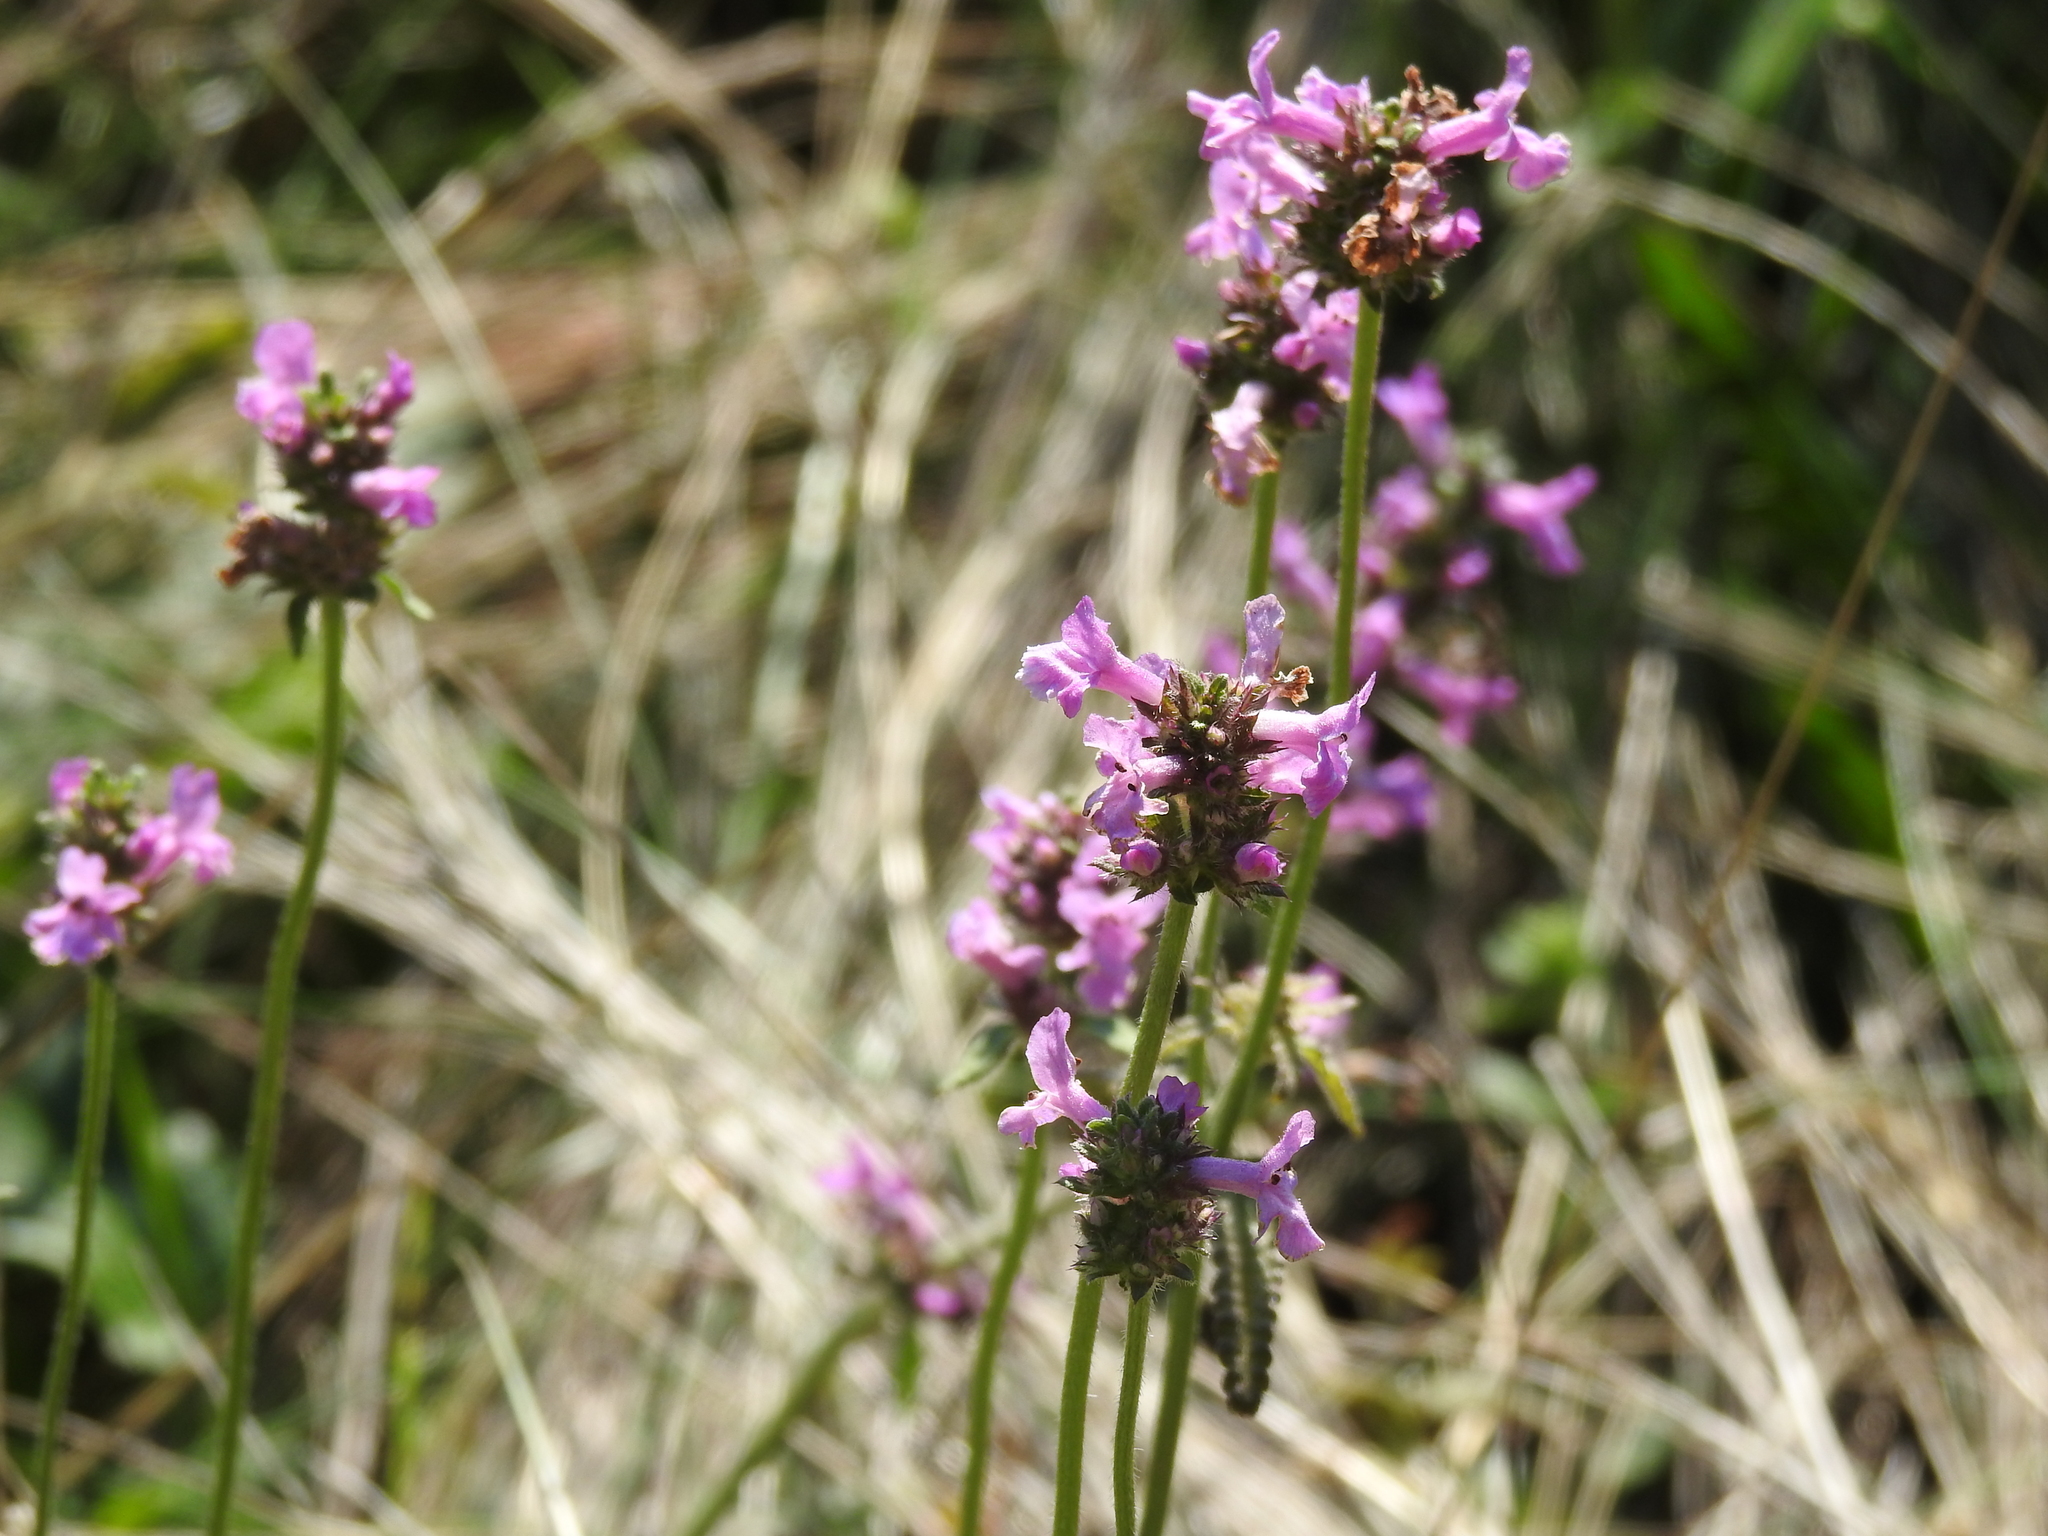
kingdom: Plantae
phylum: Tracheophyta
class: Magnoliopsida
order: Lamiales
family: Lamiaceae
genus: Betonica
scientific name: Betonica officinalis
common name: Bishop's-wort
